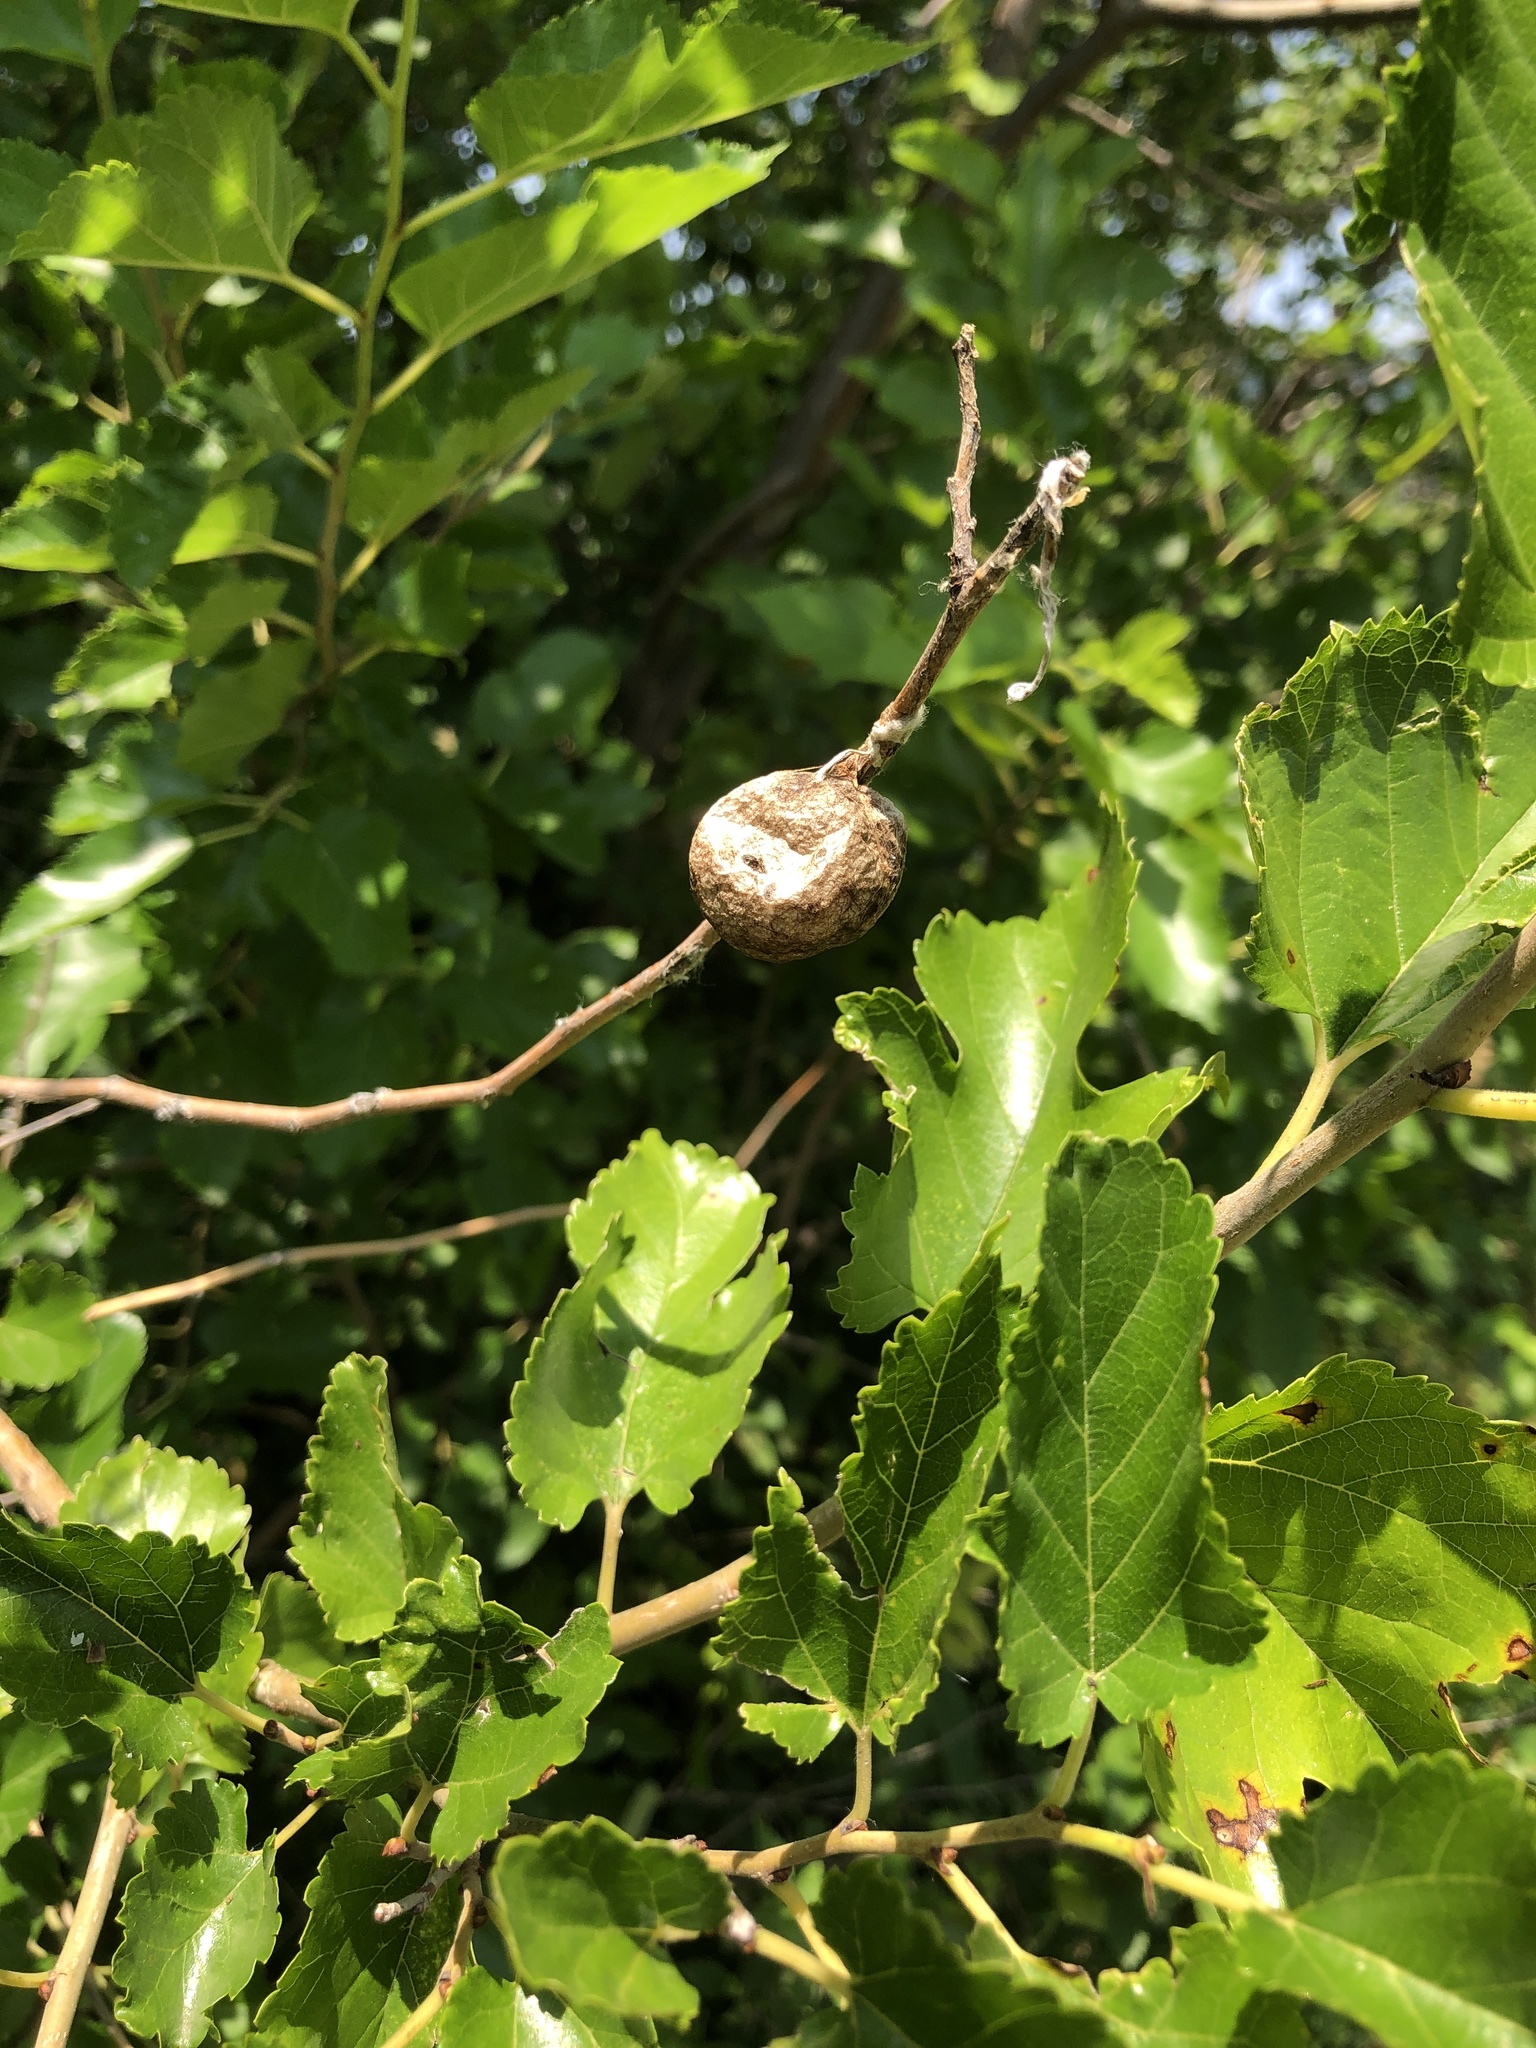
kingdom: Animalia
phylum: Arthropoda
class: Insecta
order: Hemiptera
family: Aphalaridae
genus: Pachypsylla
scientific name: Pachypsylla venusta
